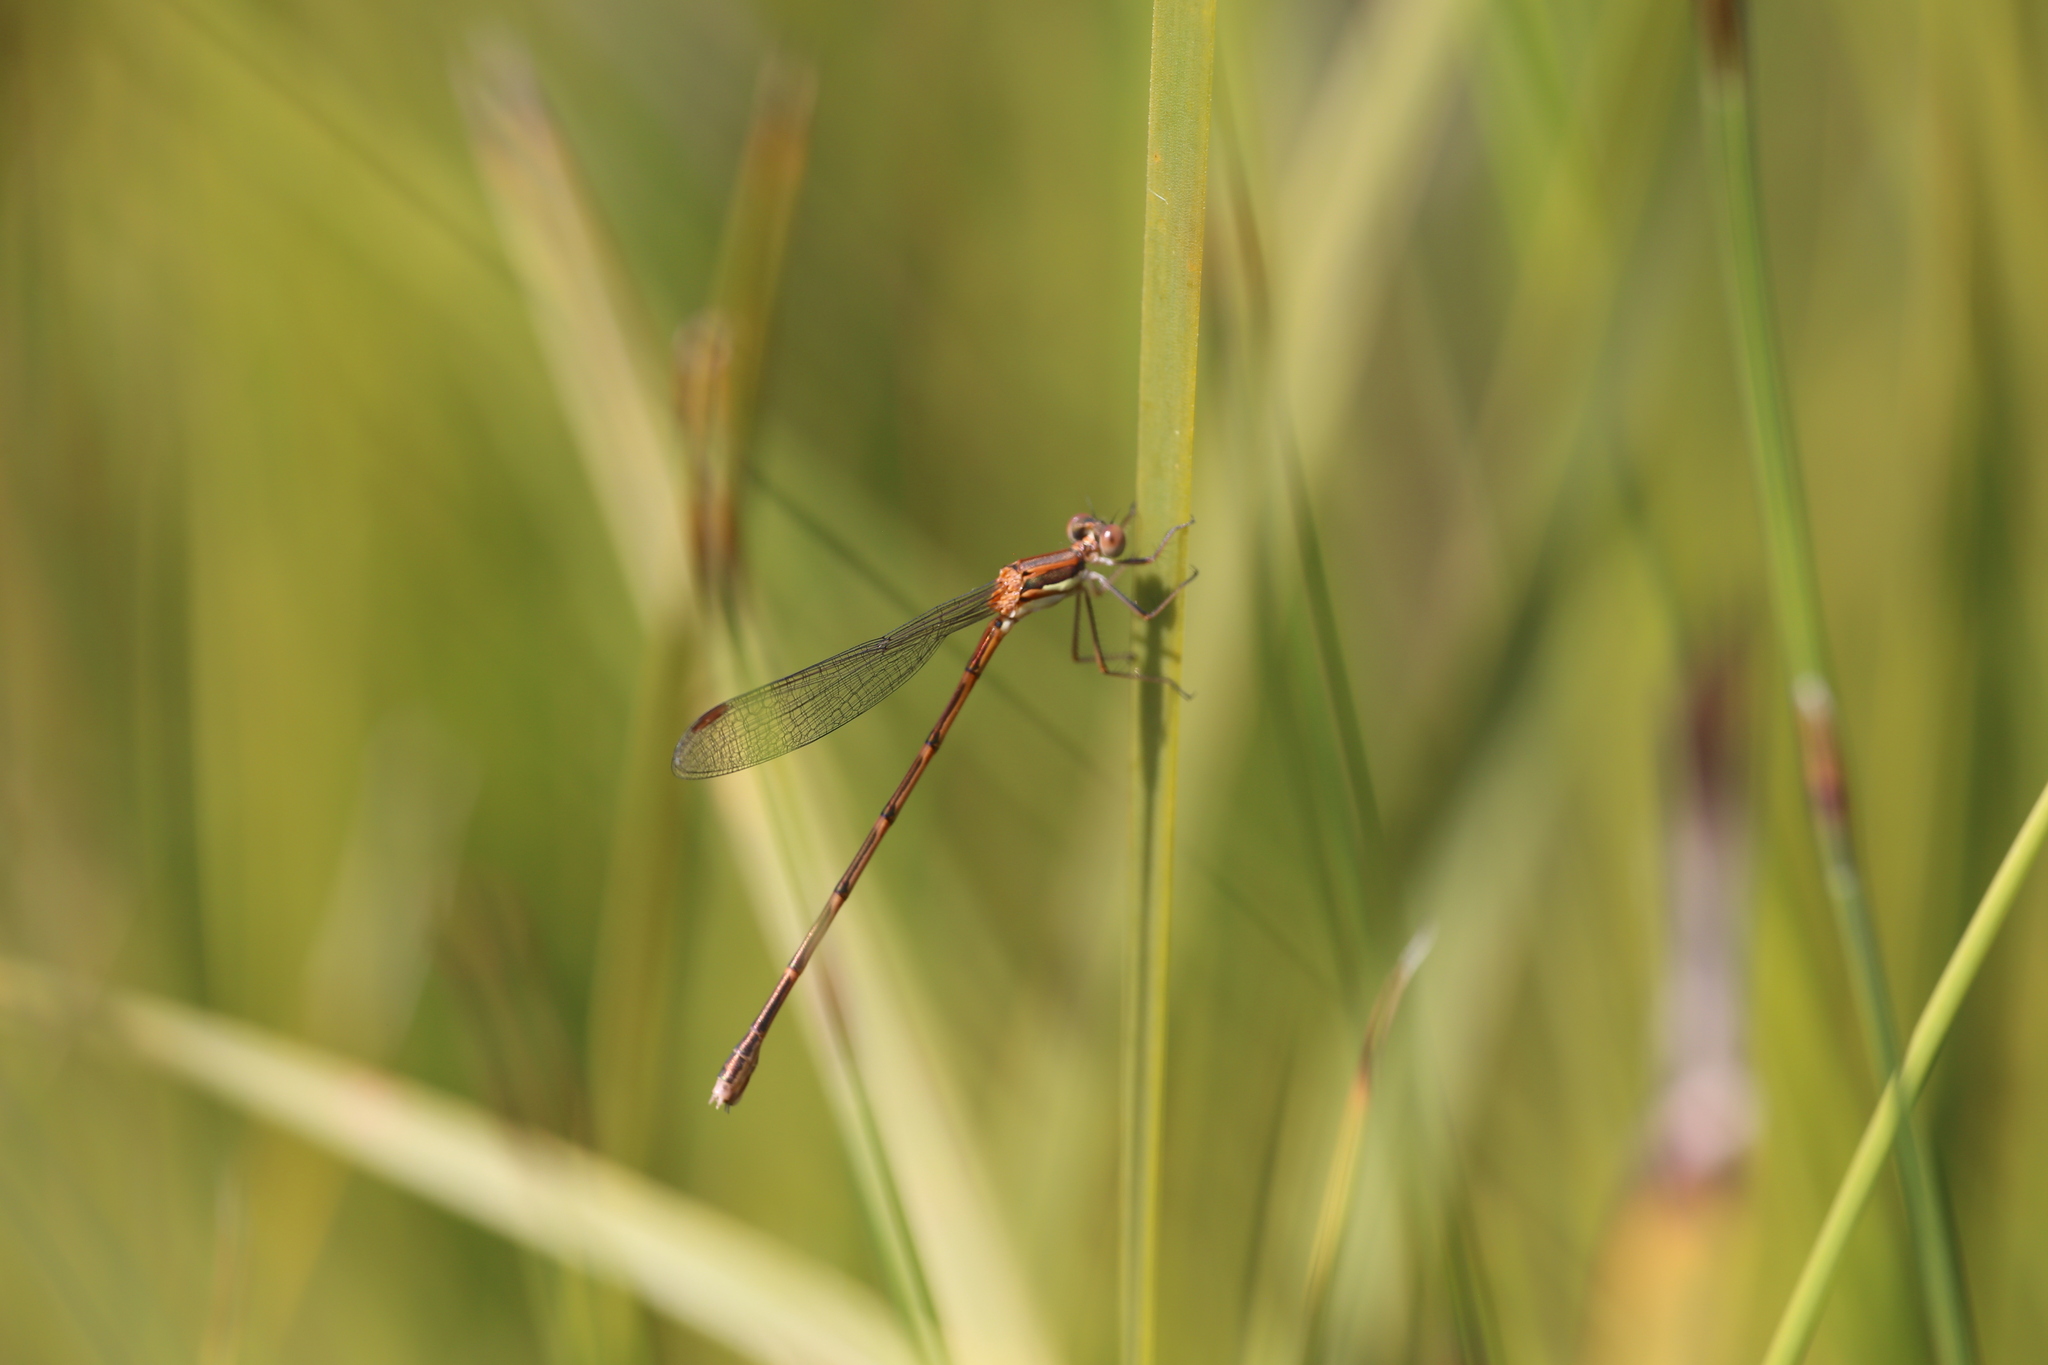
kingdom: Animalia
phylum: Arthropoda
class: Insecta
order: Odonata
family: Lestidae
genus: Austrolestes
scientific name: Austrolestes analis
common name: Slender ringtail
